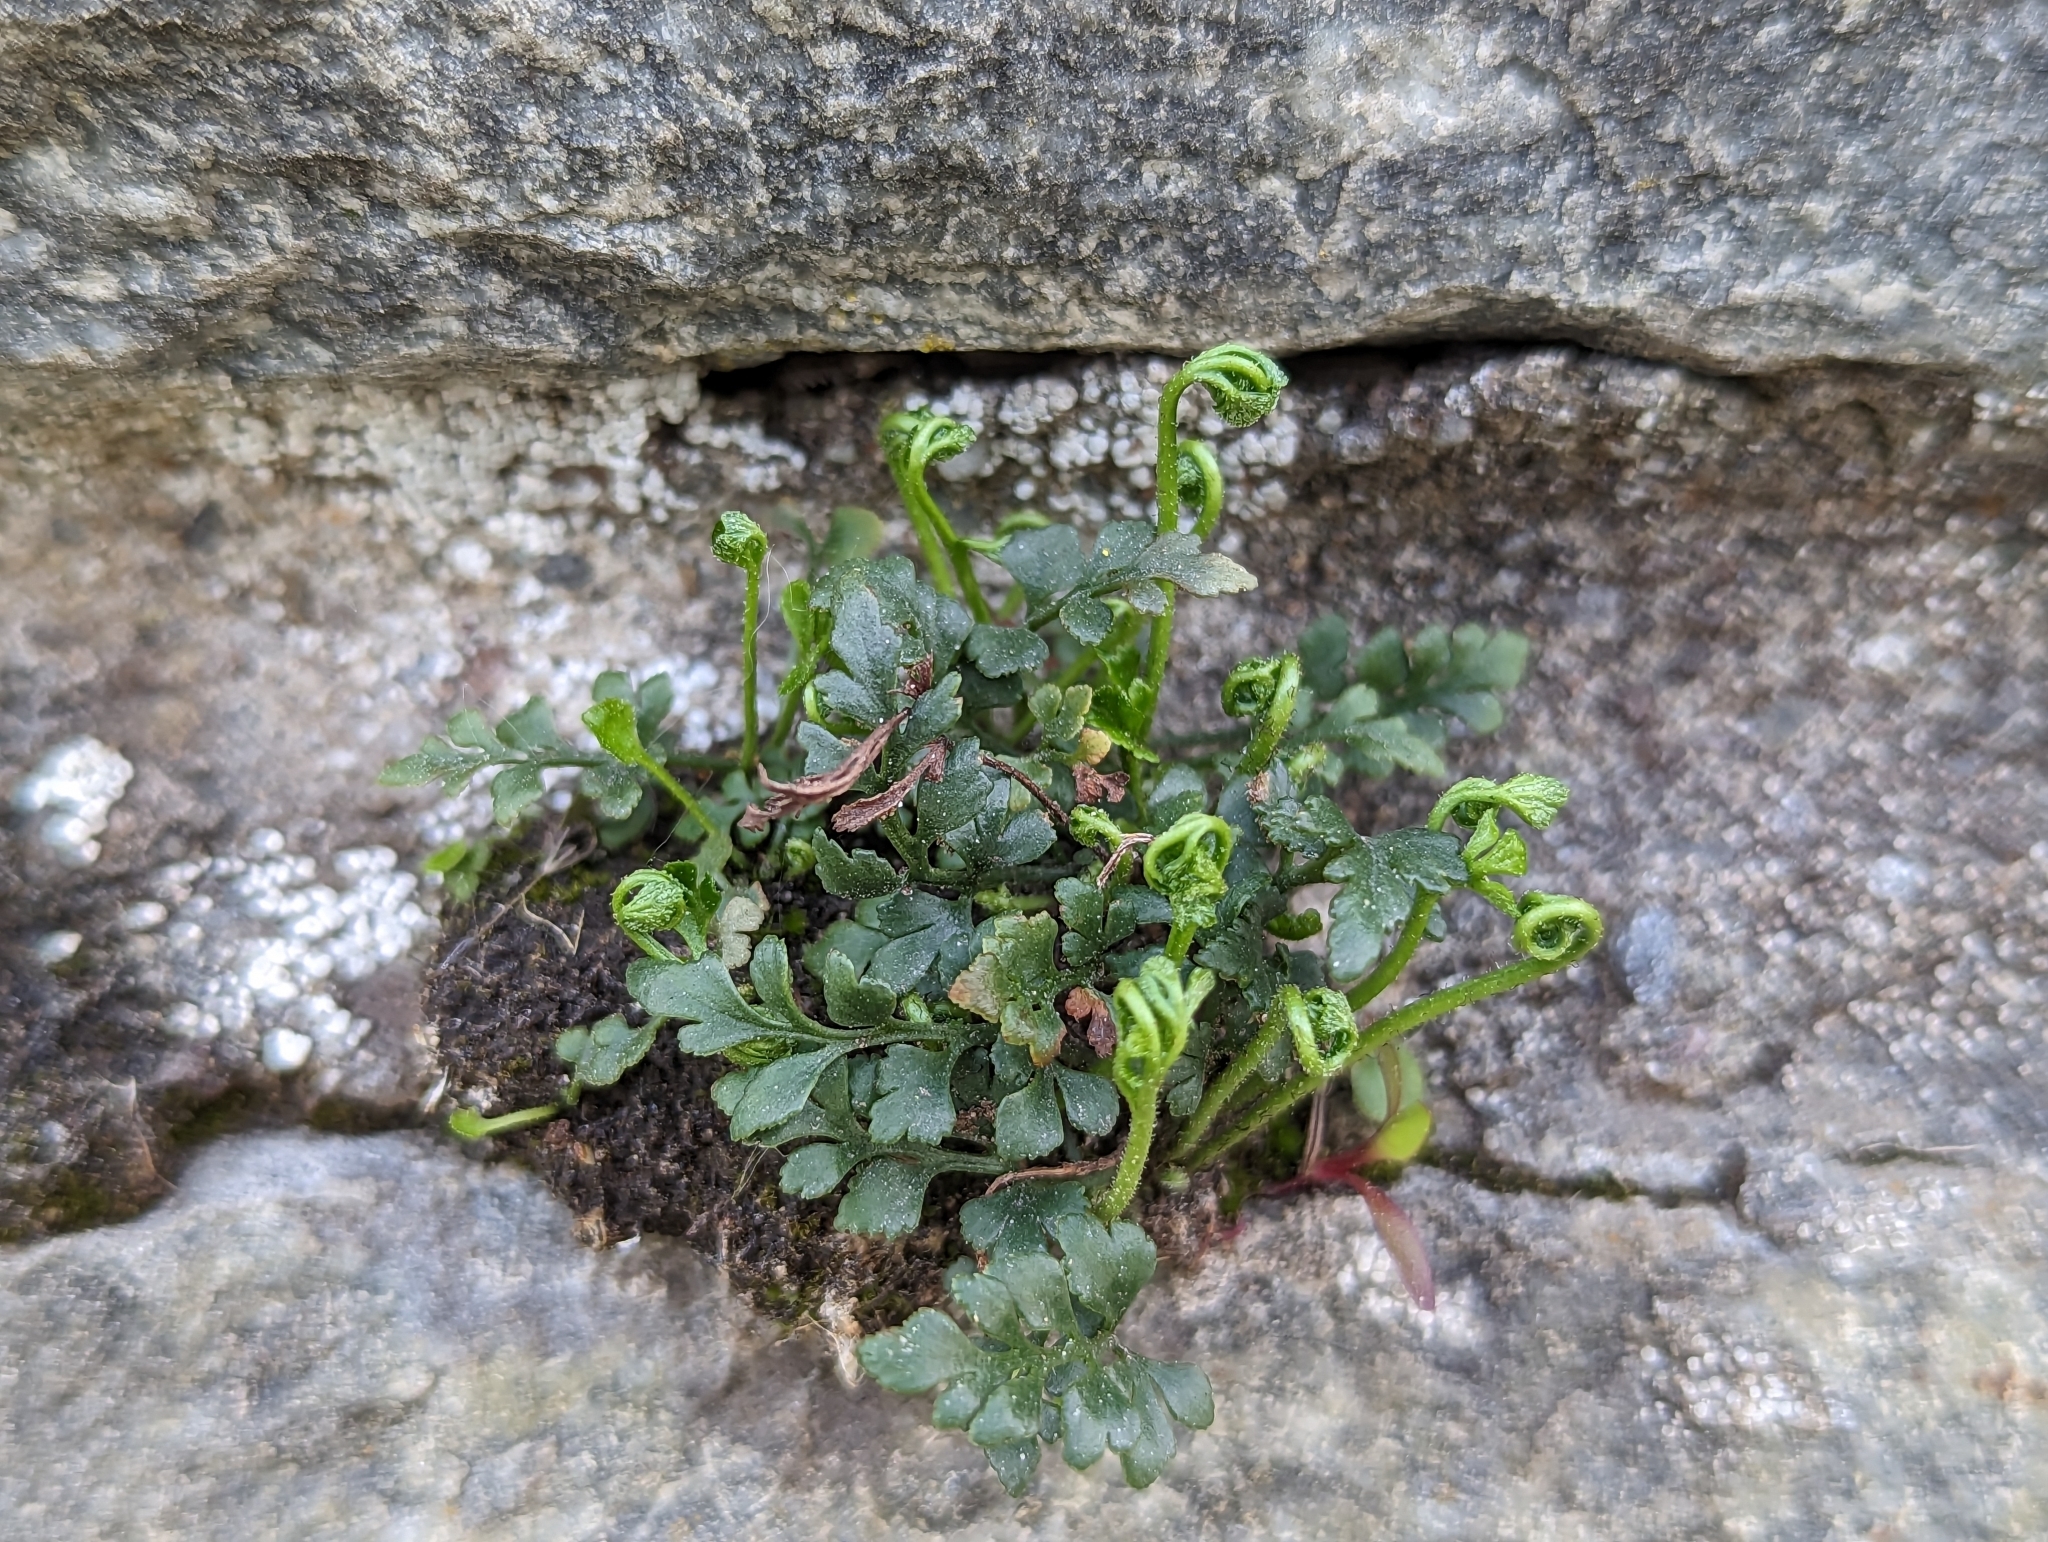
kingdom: Plantae
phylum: Tracheophyta
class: Polypodiopsida
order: Polypodiales
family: Aspleniaceae
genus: Asplenium
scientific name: Asplenium ruta-muraria
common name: Wall-rue
